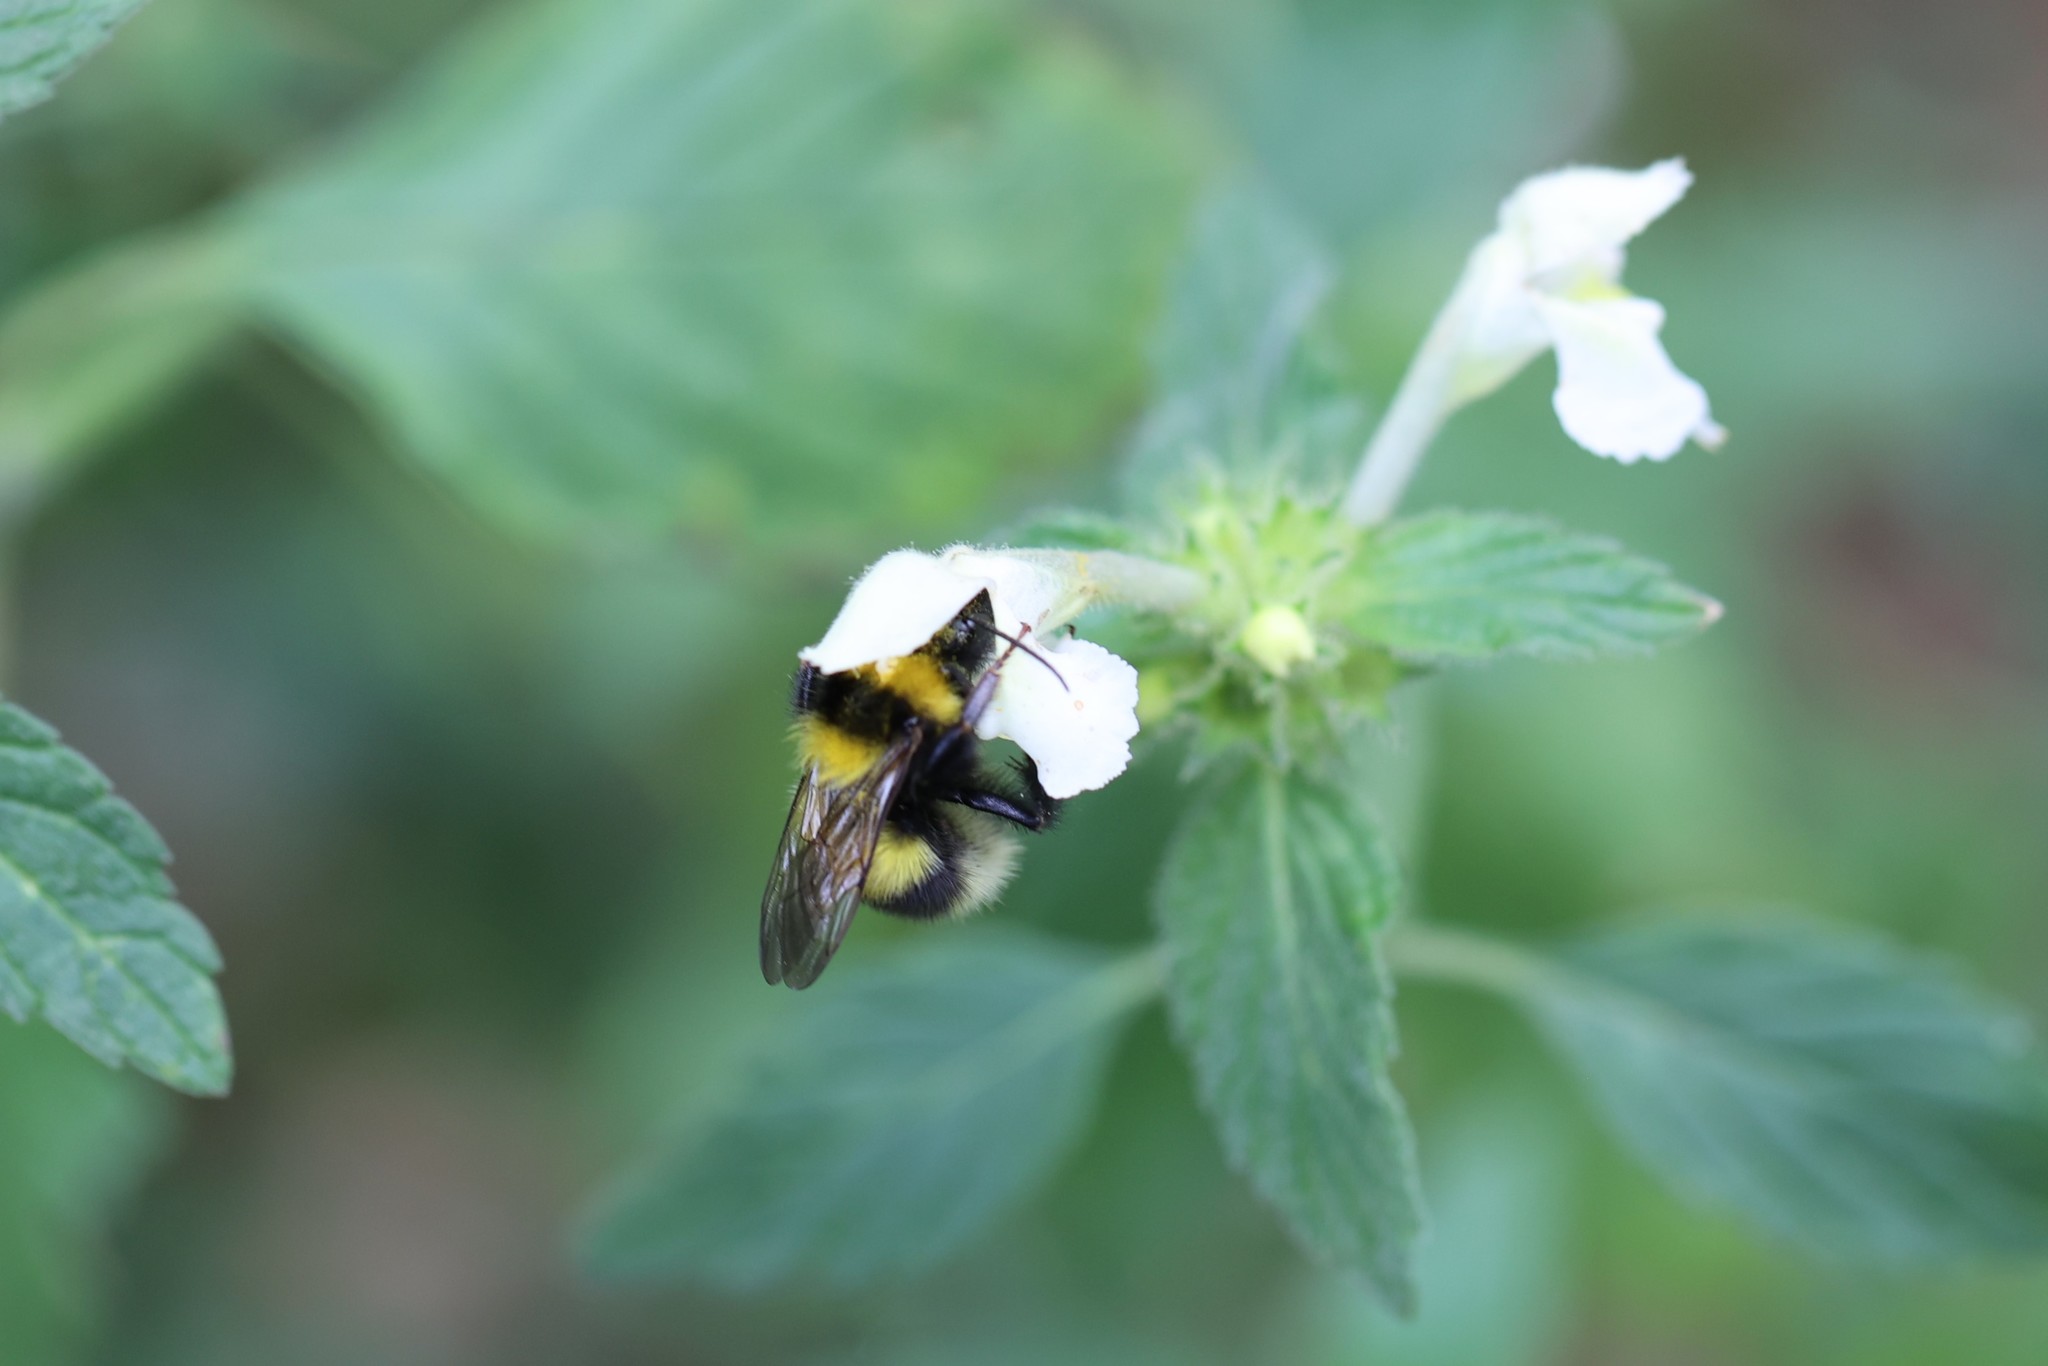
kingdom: Animalia
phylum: Arthropoda
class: Insecta
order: Hymenoptera
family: Apidae
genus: Bombus
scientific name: Bombus hortorum
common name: Garden bumblebee
